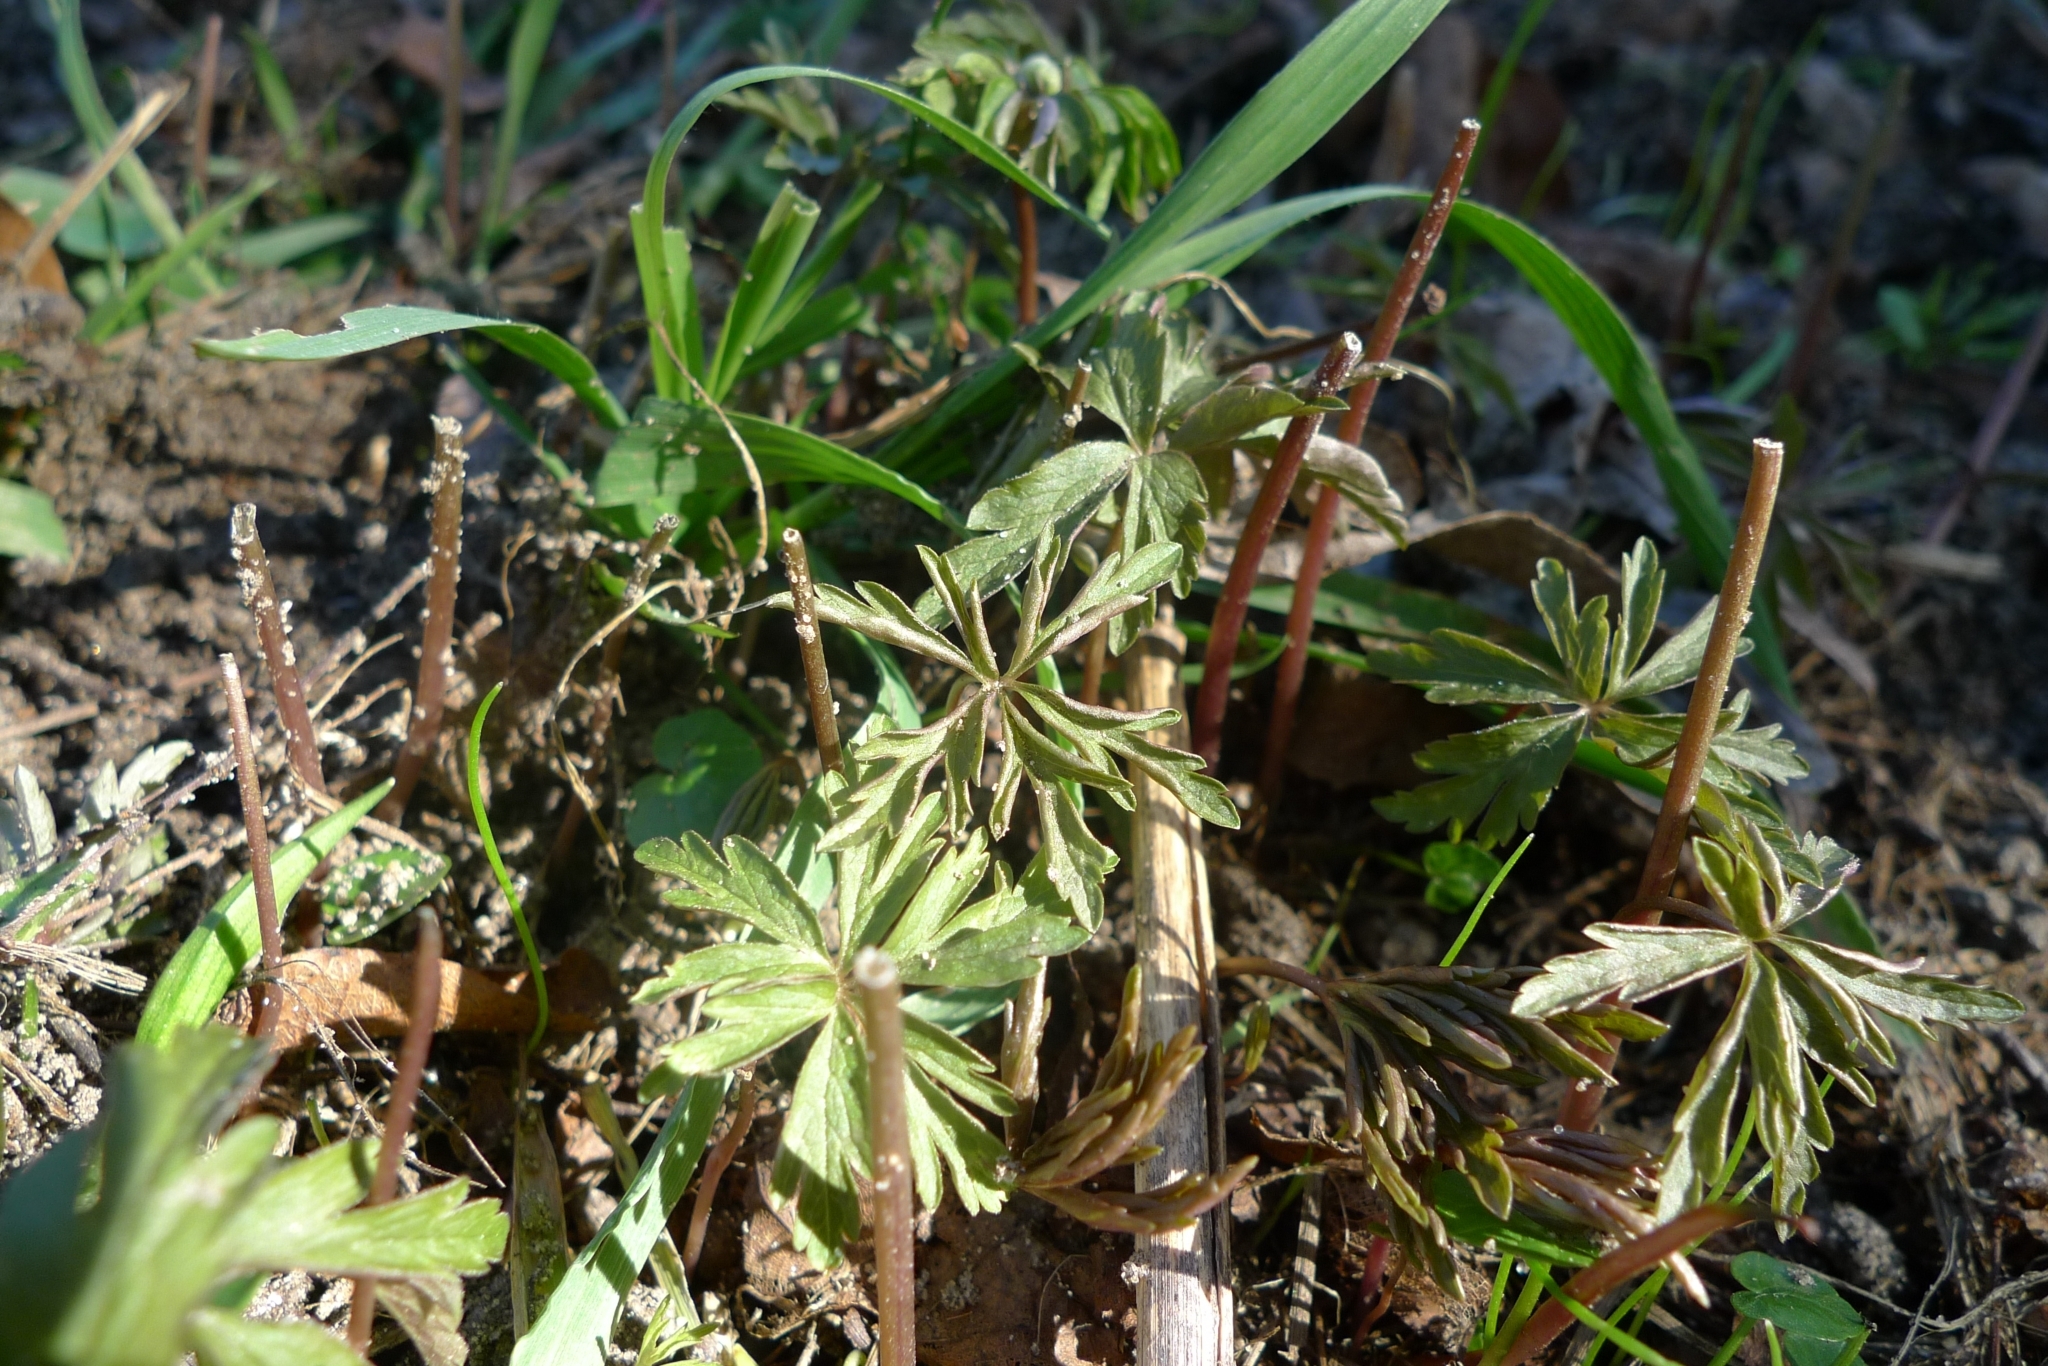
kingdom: Plantae
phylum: Tracheophyta
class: Magnoliopsida
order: Ranunculales
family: Ranunculaceae
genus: Anemone
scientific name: Anemone ranunculoides
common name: Yellow anemone
